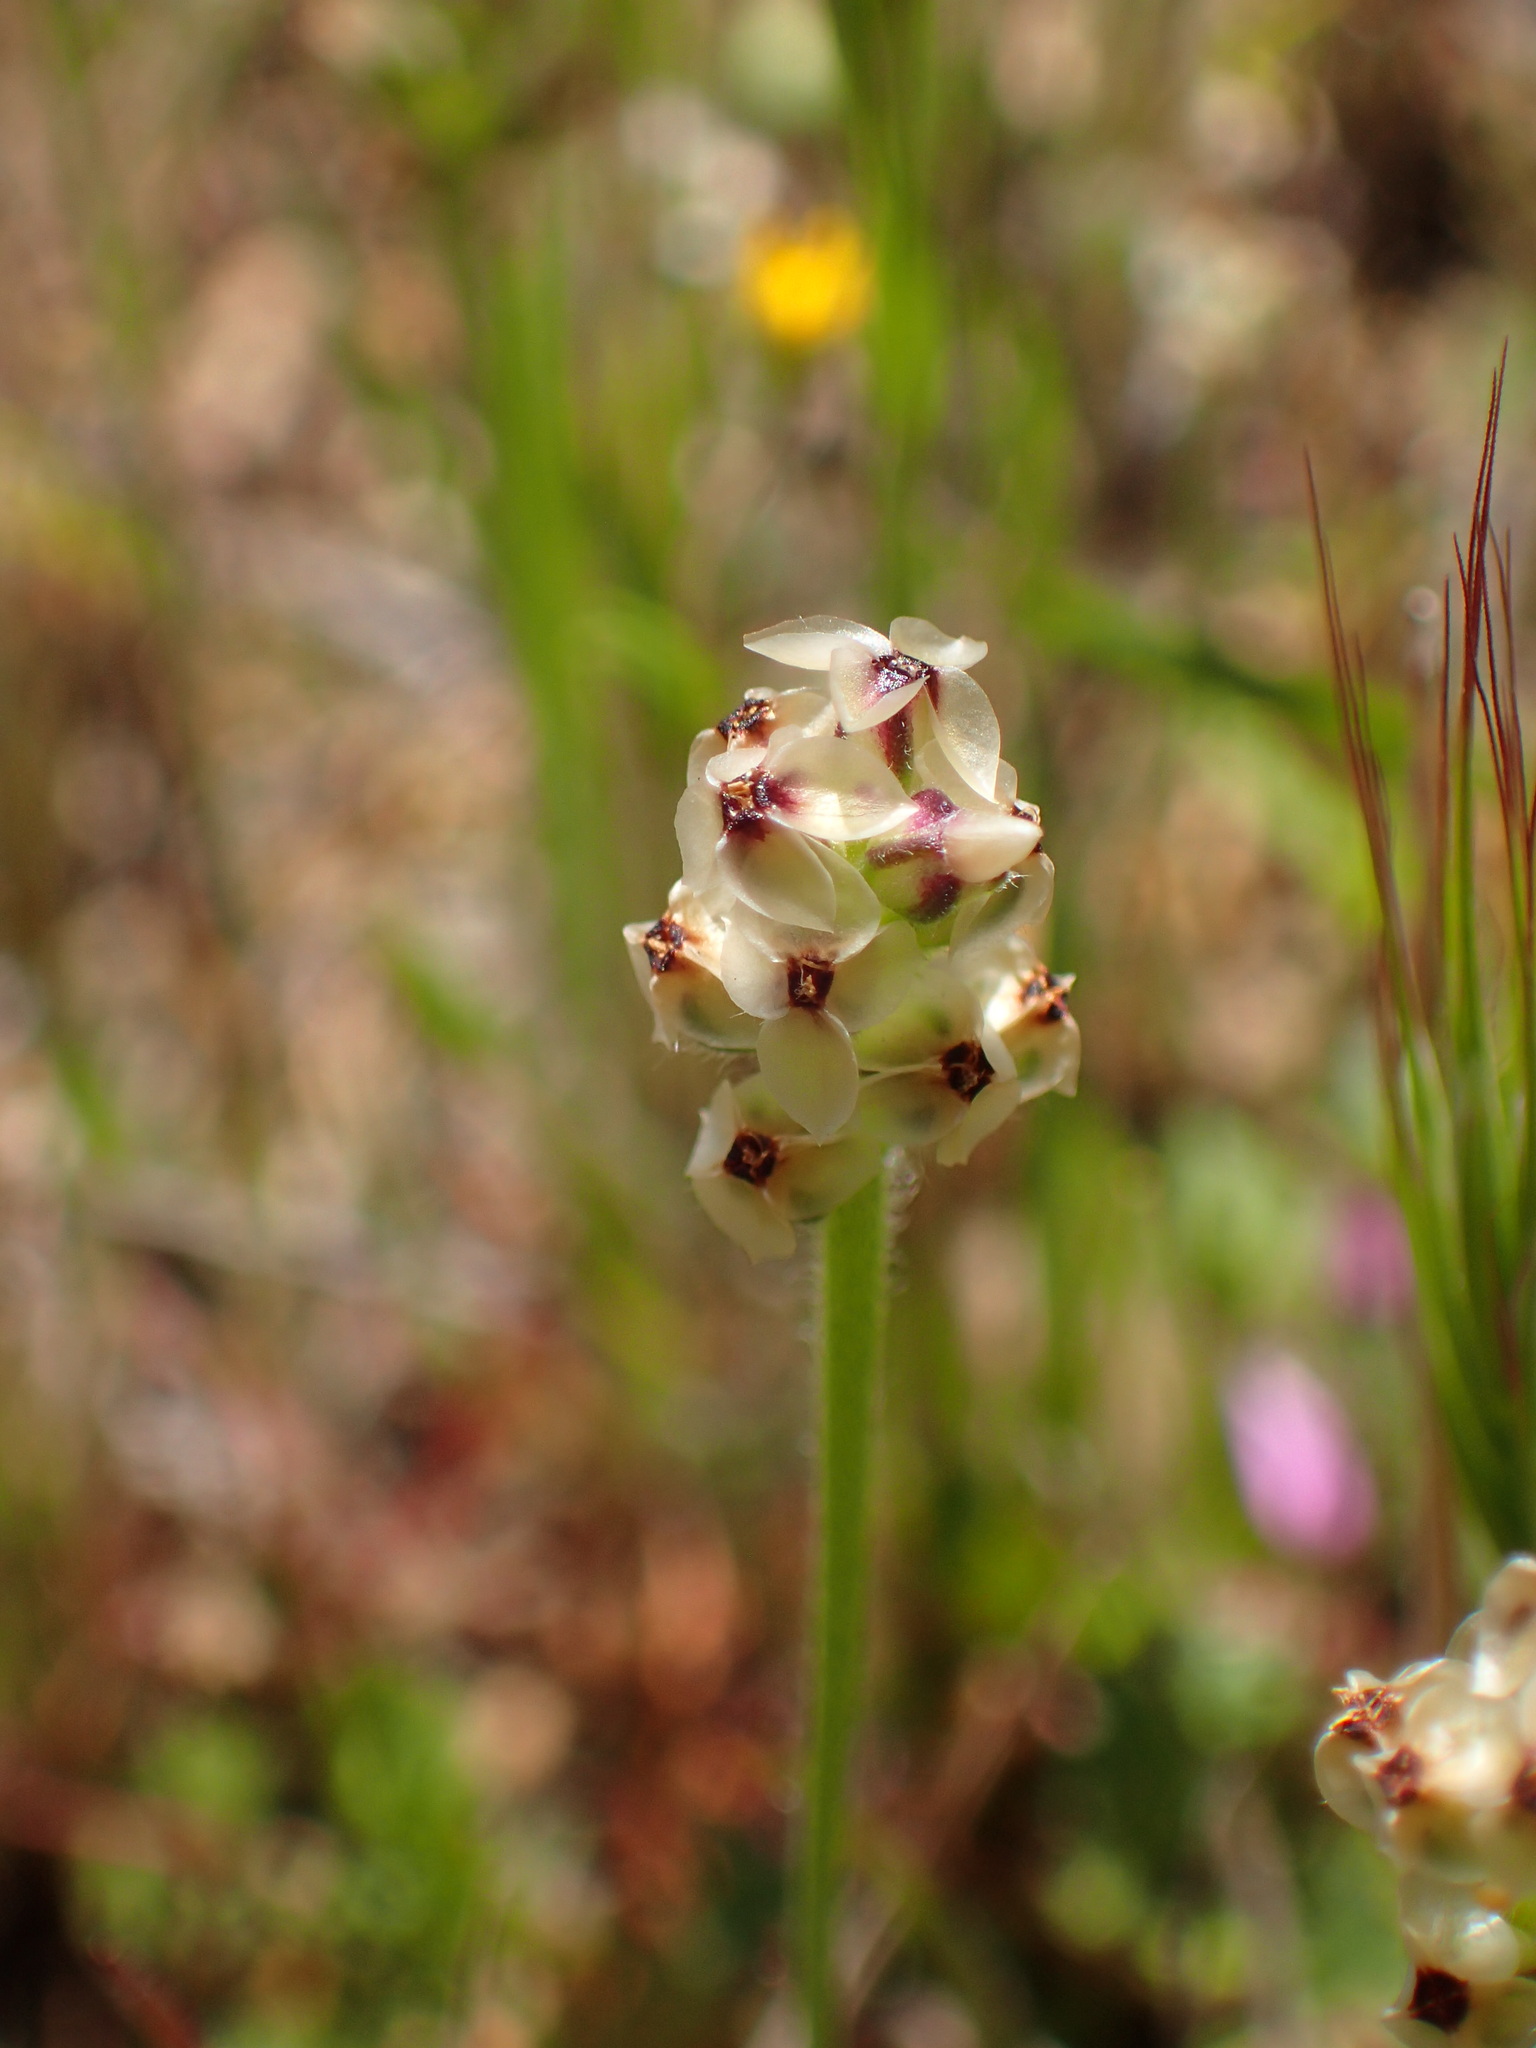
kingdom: Plantae
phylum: Tracheophyta
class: Magnoliopsida
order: Lamiales
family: Plantaginaceae
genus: Plantago
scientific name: Plantago erecta
